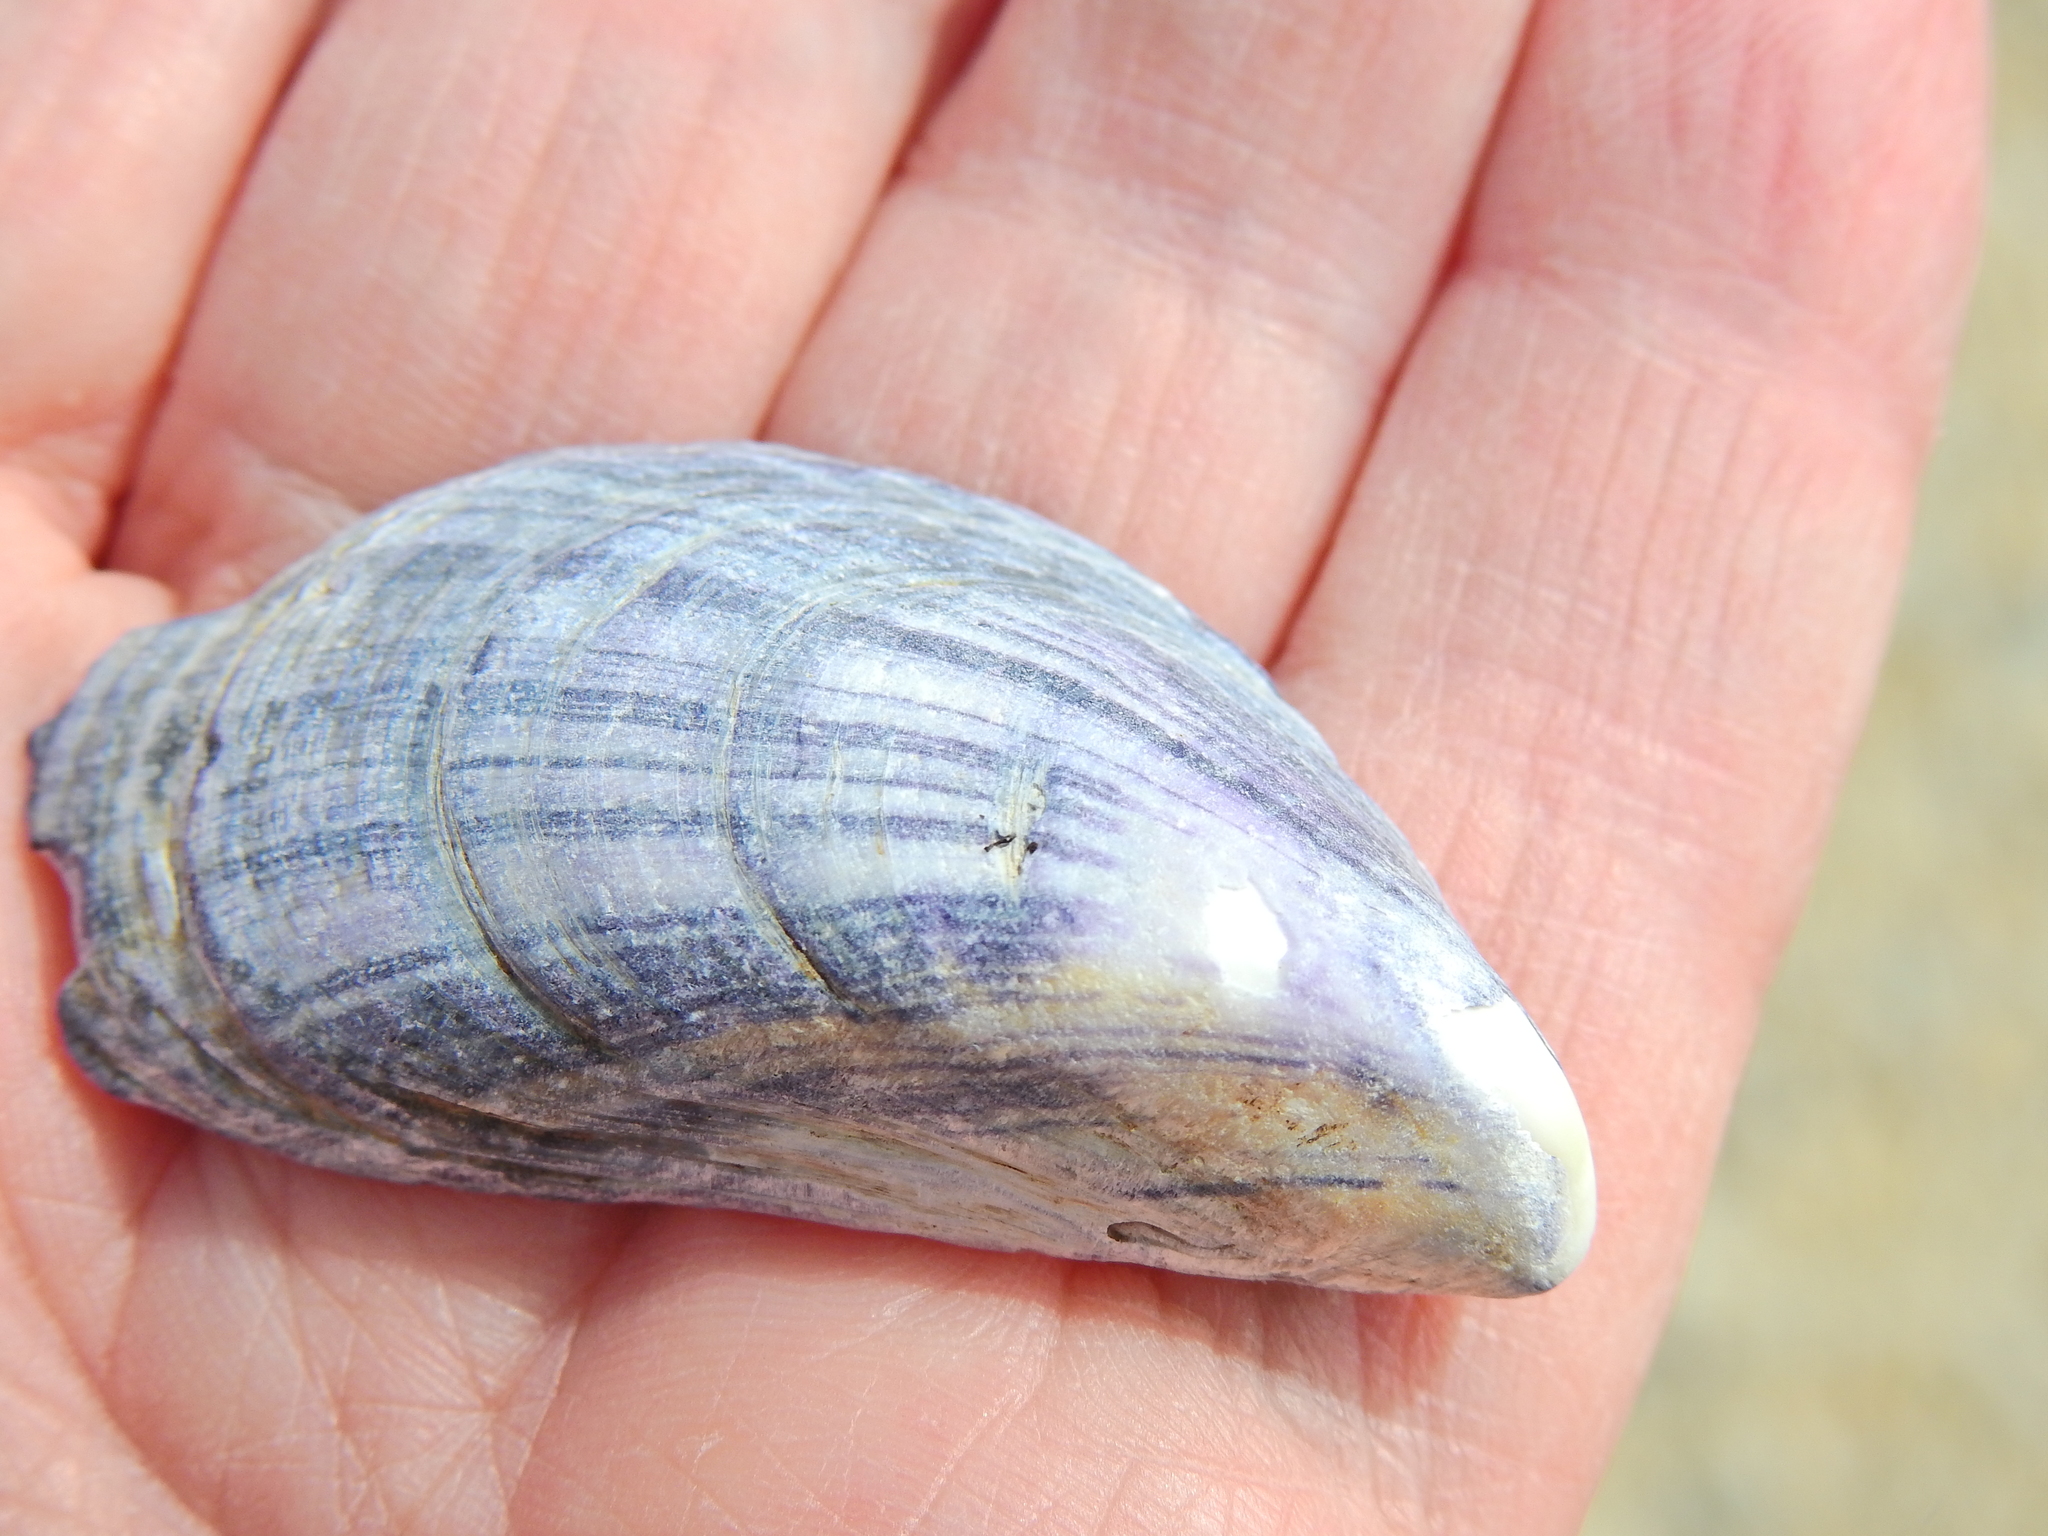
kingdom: Animalia
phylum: Mollusca
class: Bivalvia
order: Mytilida
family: Mytilidae
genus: Mytilus
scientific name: Mytilus edulis
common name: Blue mussel
